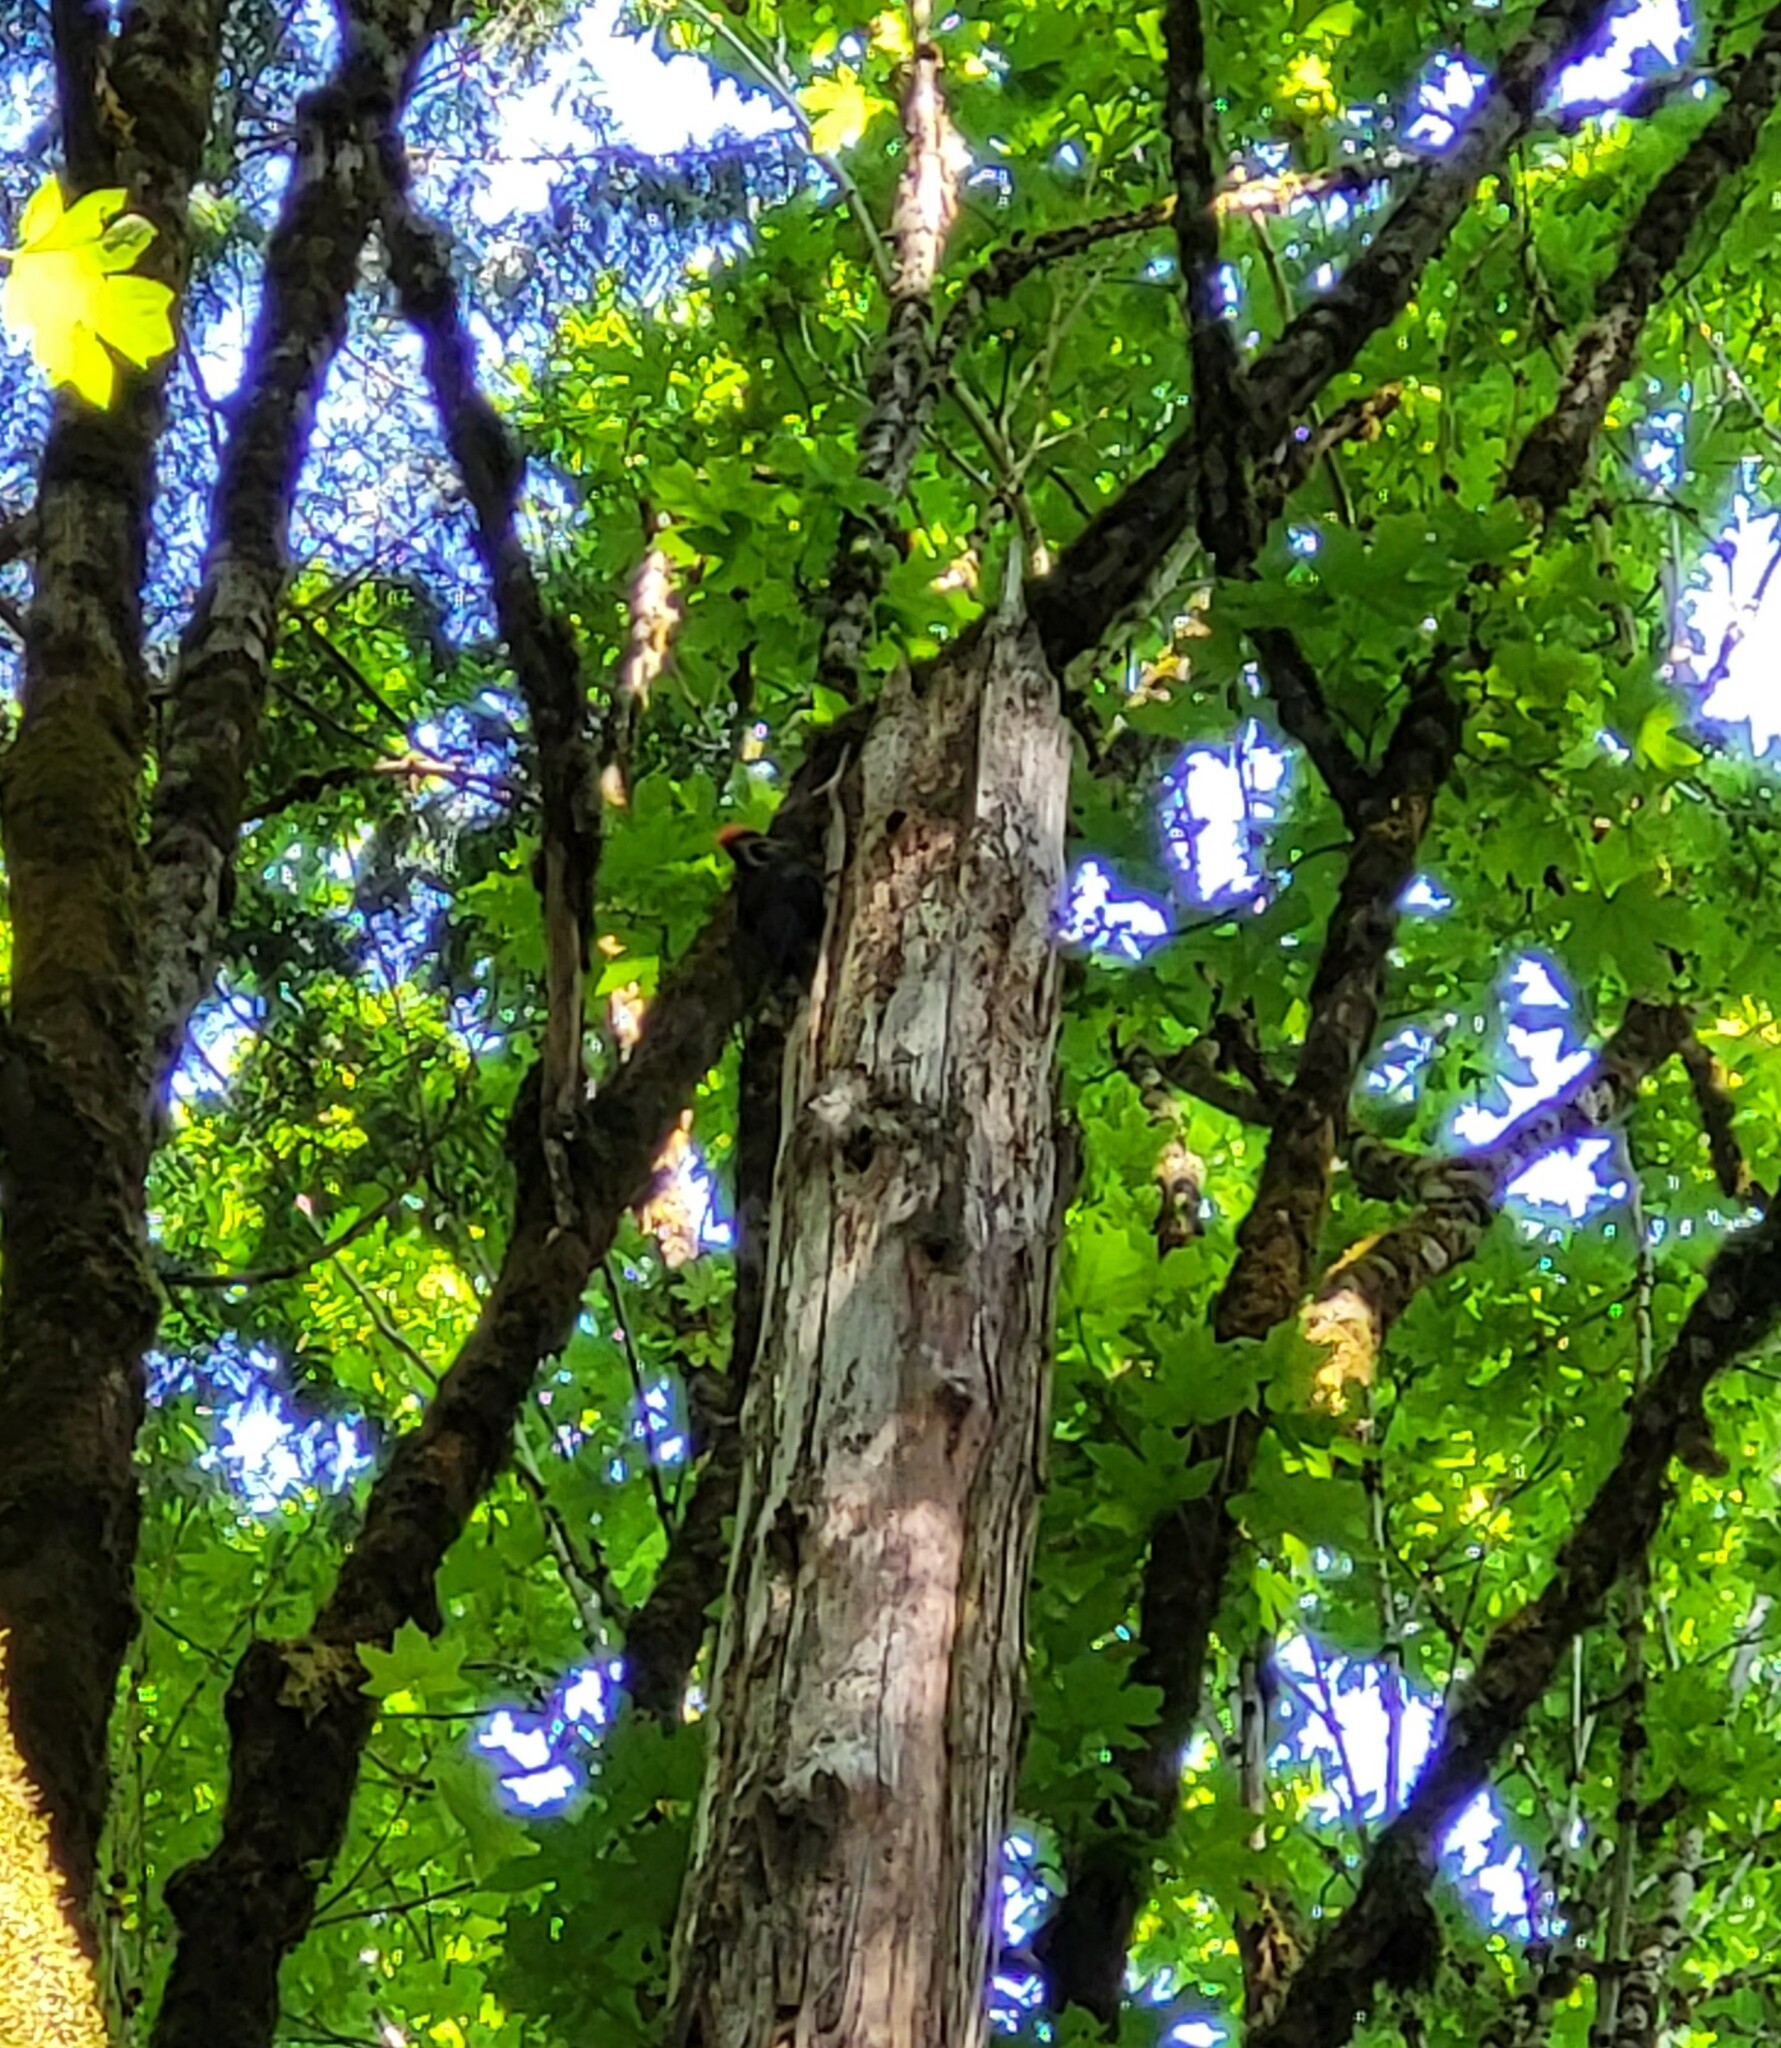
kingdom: Animalia
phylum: Chordata
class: Aves
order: Piciformes
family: Picidae
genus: Dryocopus
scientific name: Dryocopus pileatus
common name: Pileated woodpecker
